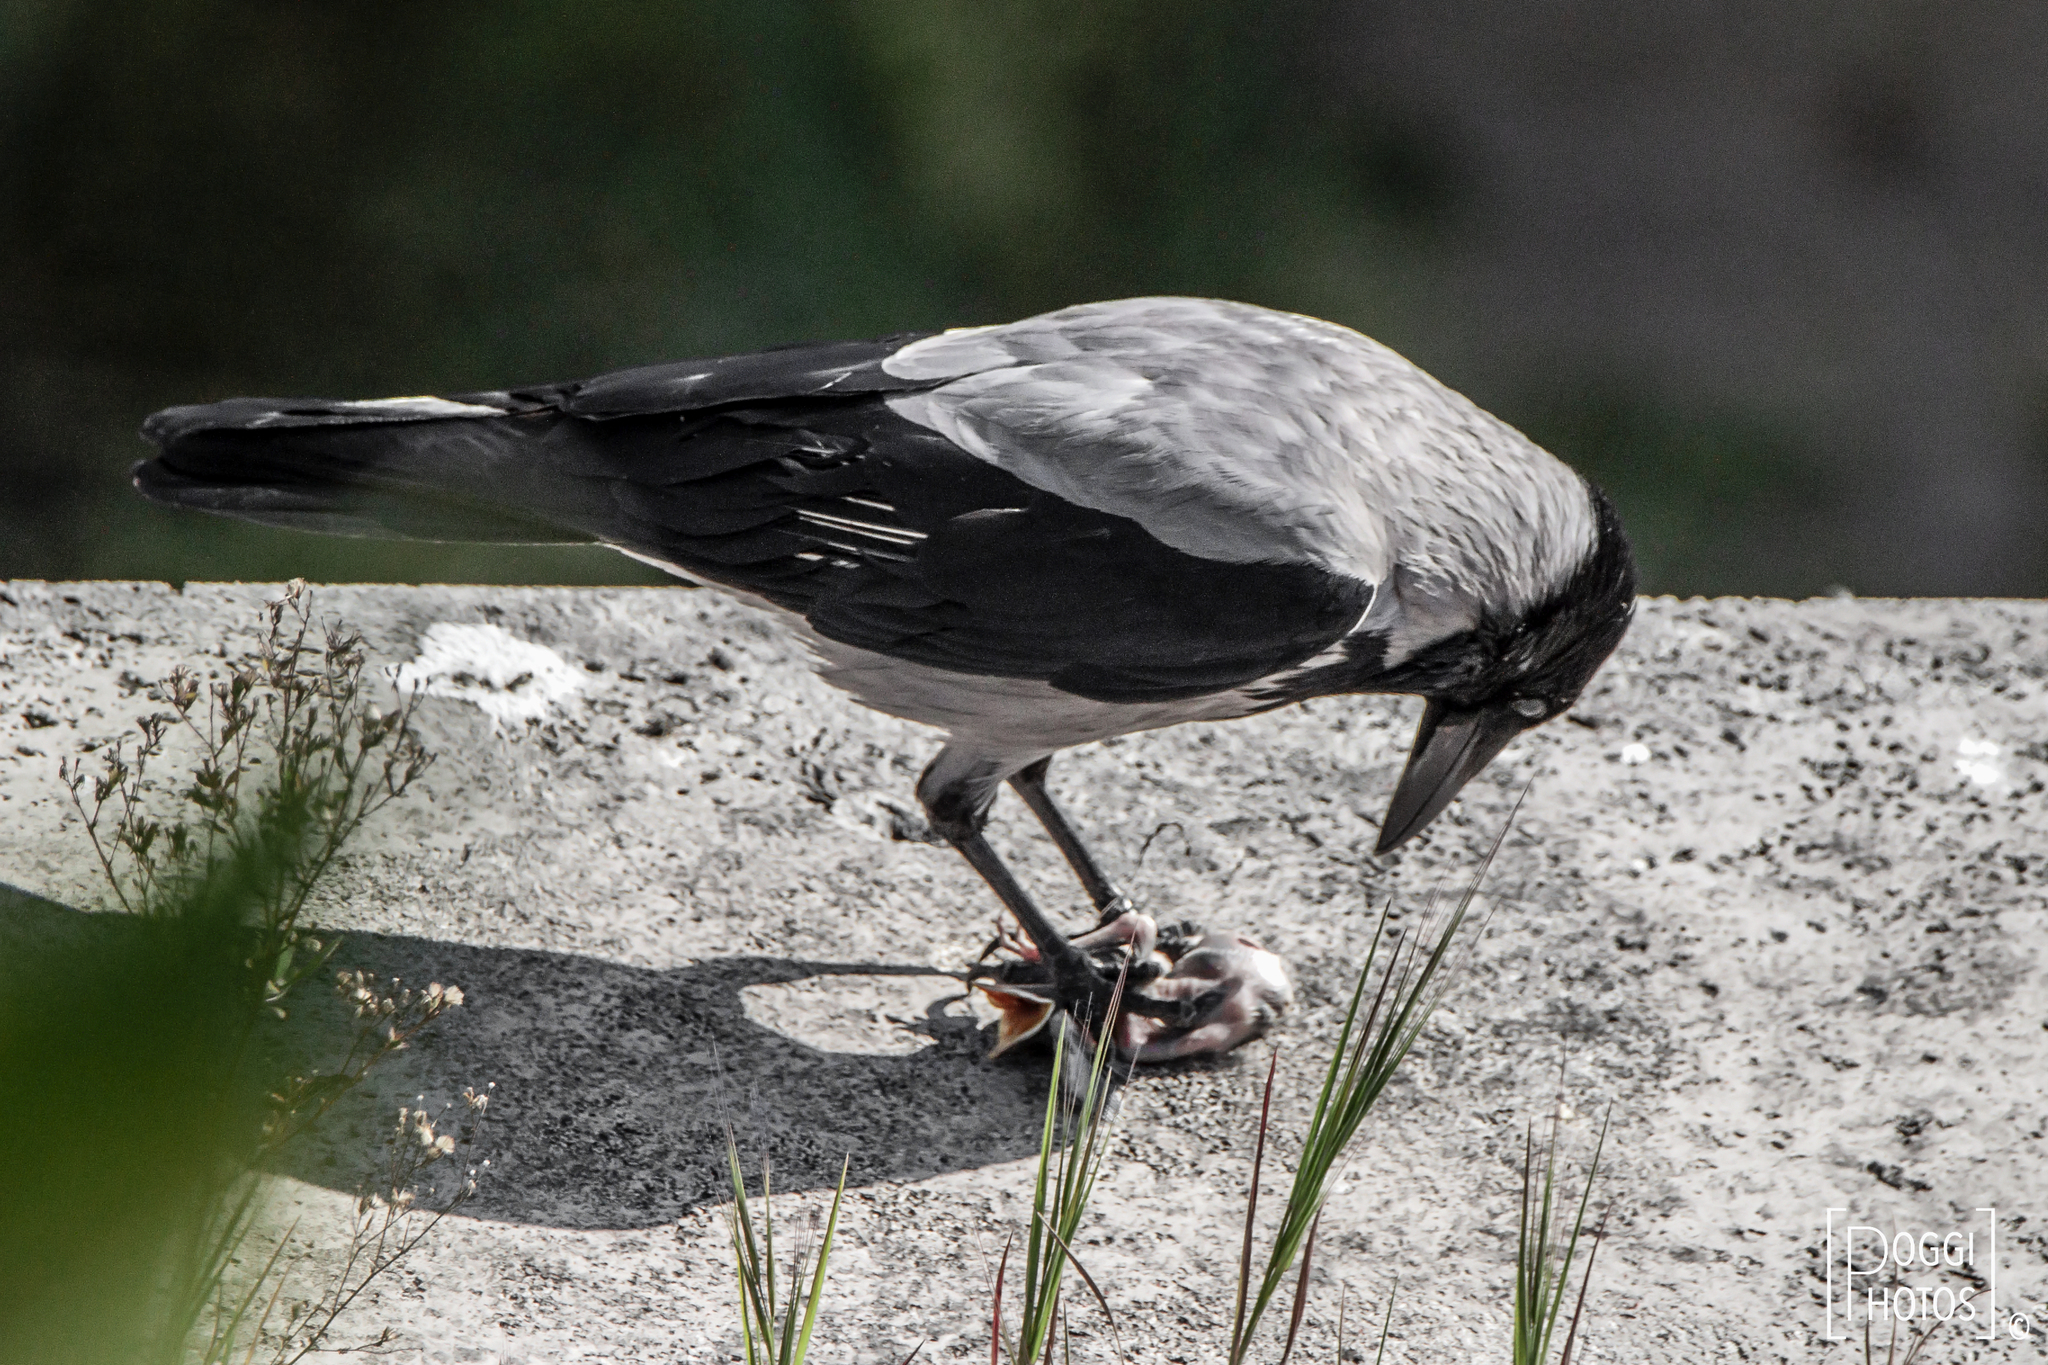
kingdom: Animalia
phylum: Chordata
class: Aves
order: Passeriformes
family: Corvidae
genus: Corvus
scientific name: Corvus cornix
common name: Hooded crow
